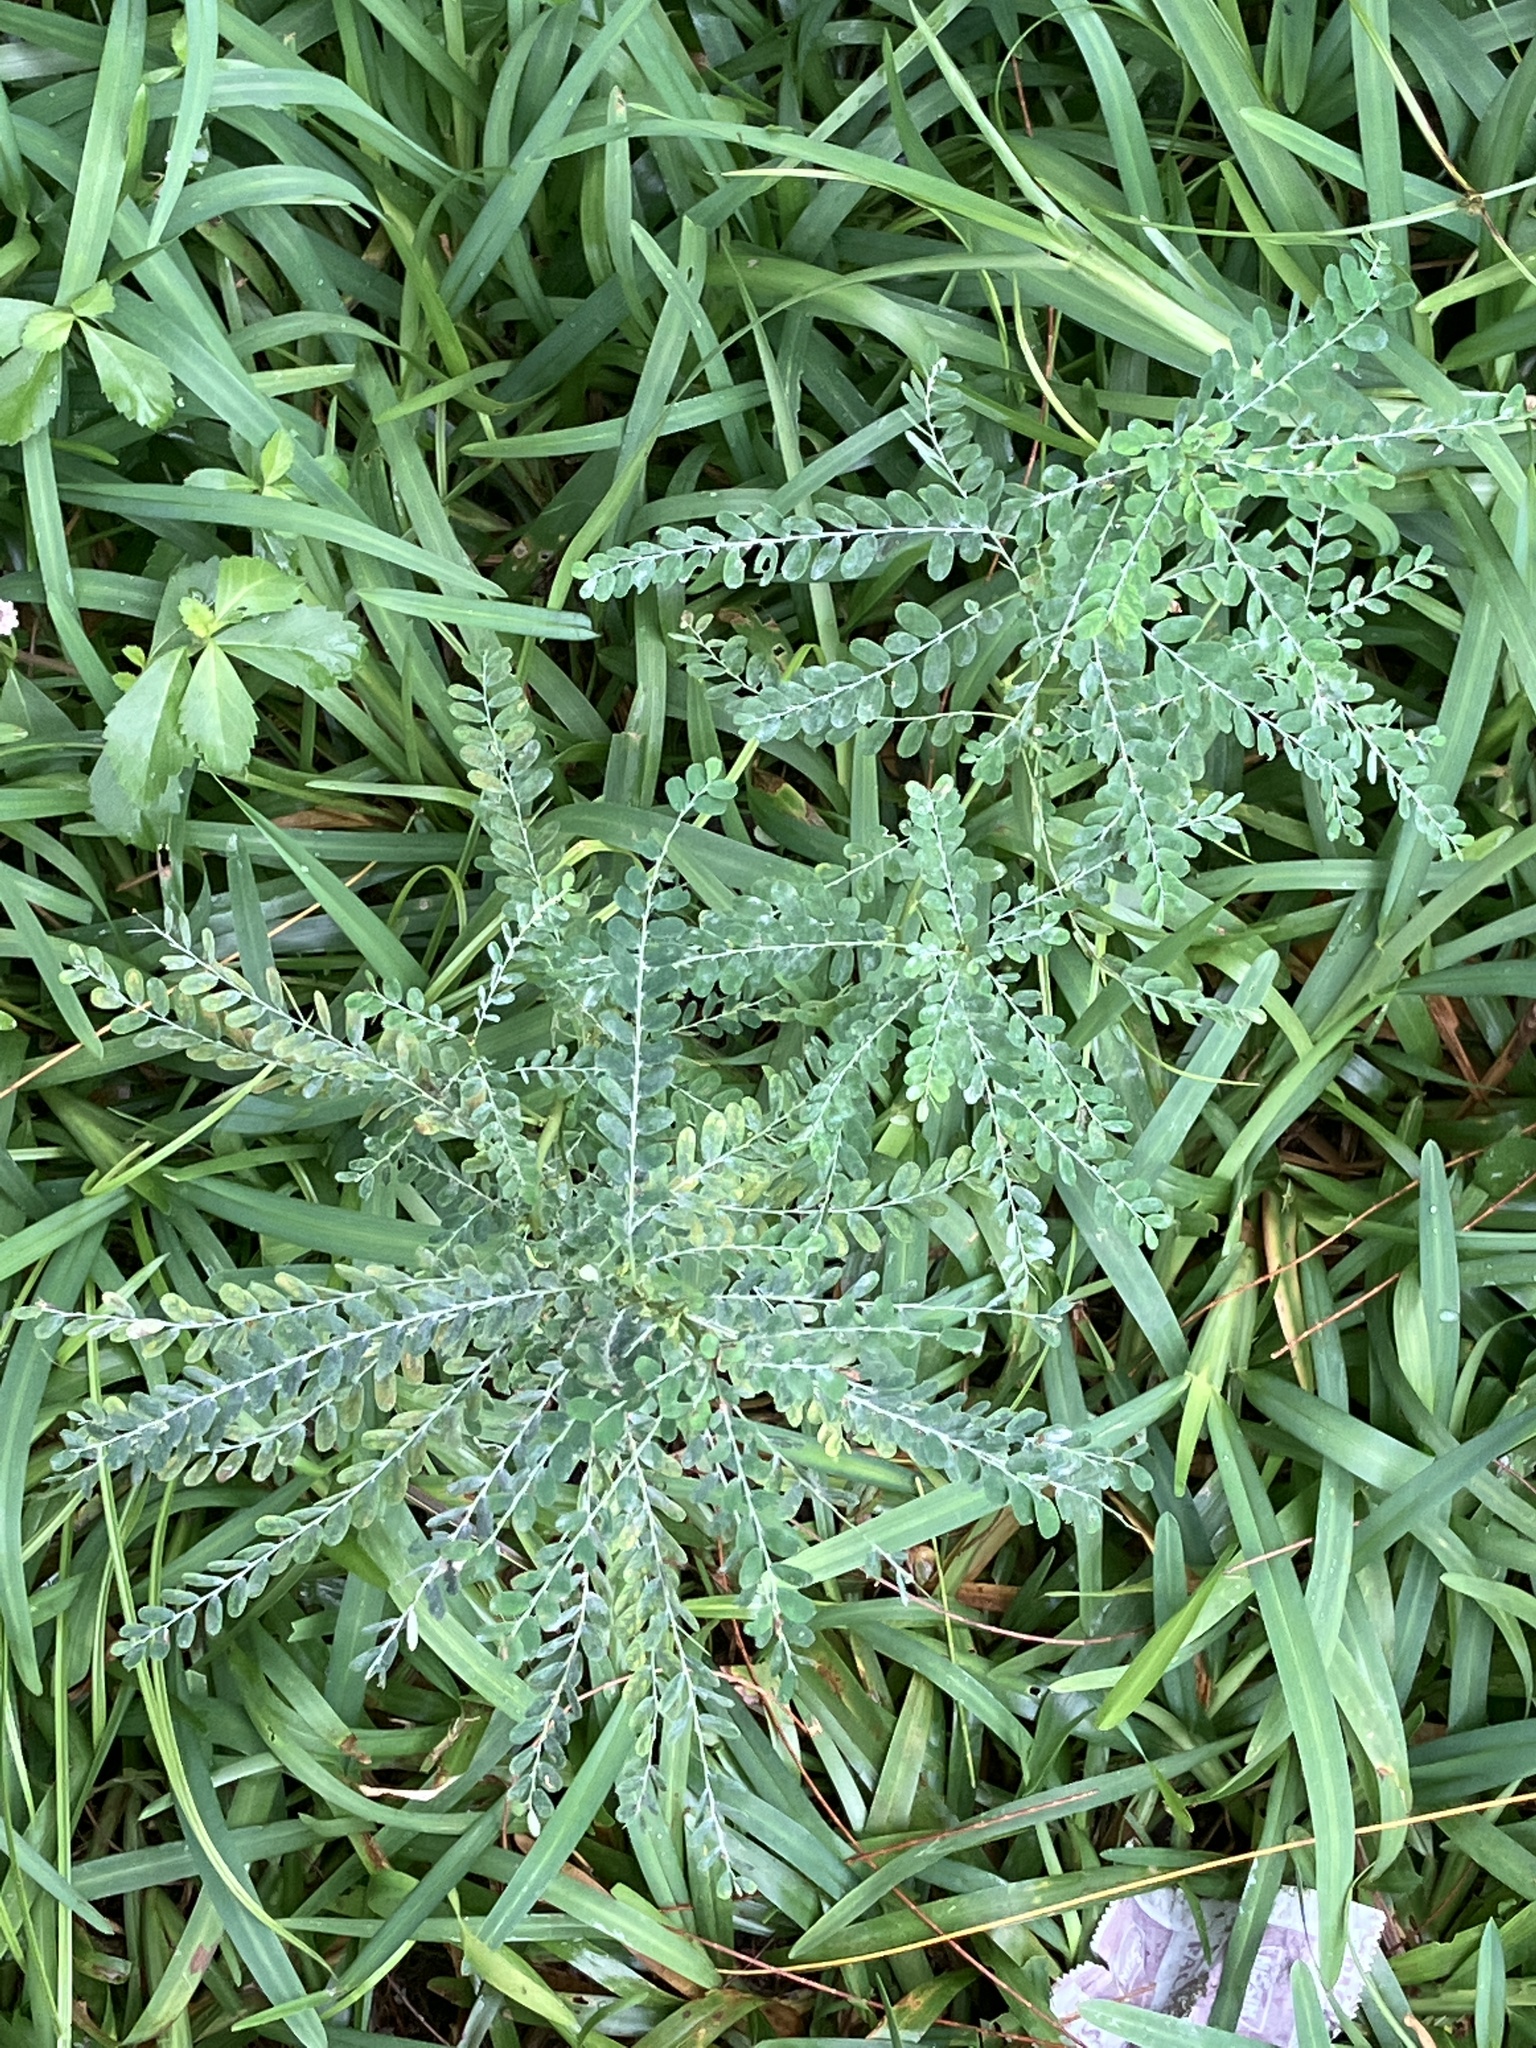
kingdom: Plantae
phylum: Tracheophyta
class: Magnoliopsida
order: Malpighiales
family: Phyllanthaceae
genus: Phyllanthus
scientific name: Phyllanthus amarus
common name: Carry me seed
